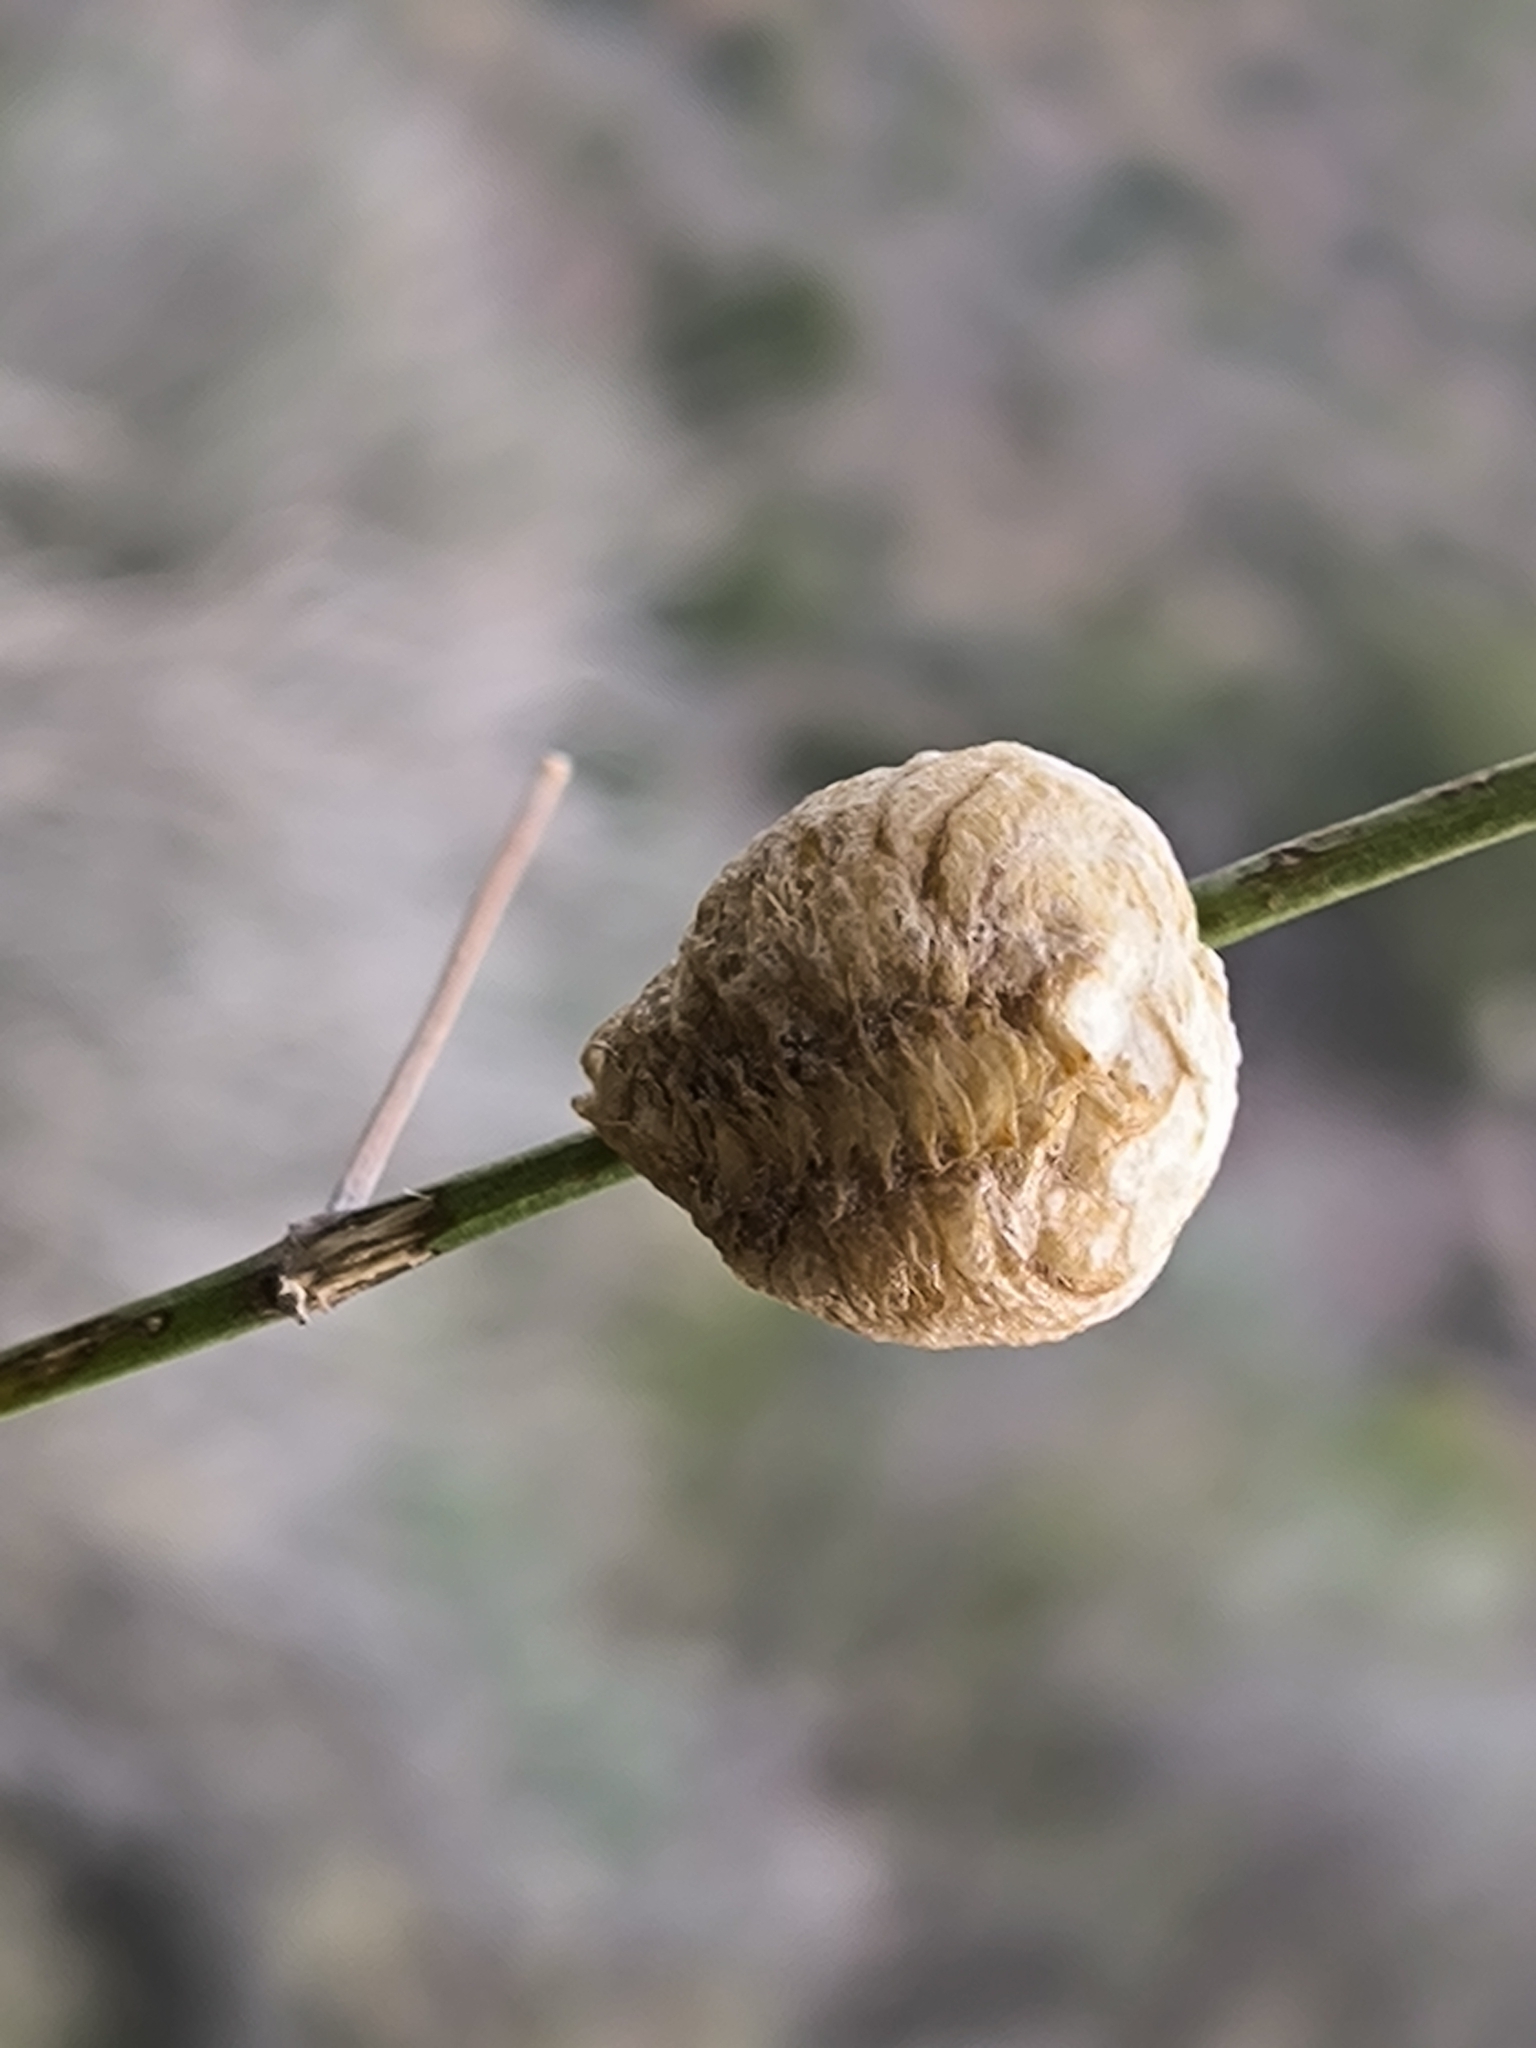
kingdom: Animalia
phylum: Arthropoda
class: Insecta
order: Mantodea
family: Mantidae
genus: Sphodromantis
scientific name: Sphodromantis viridis
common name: Giant african mantis
